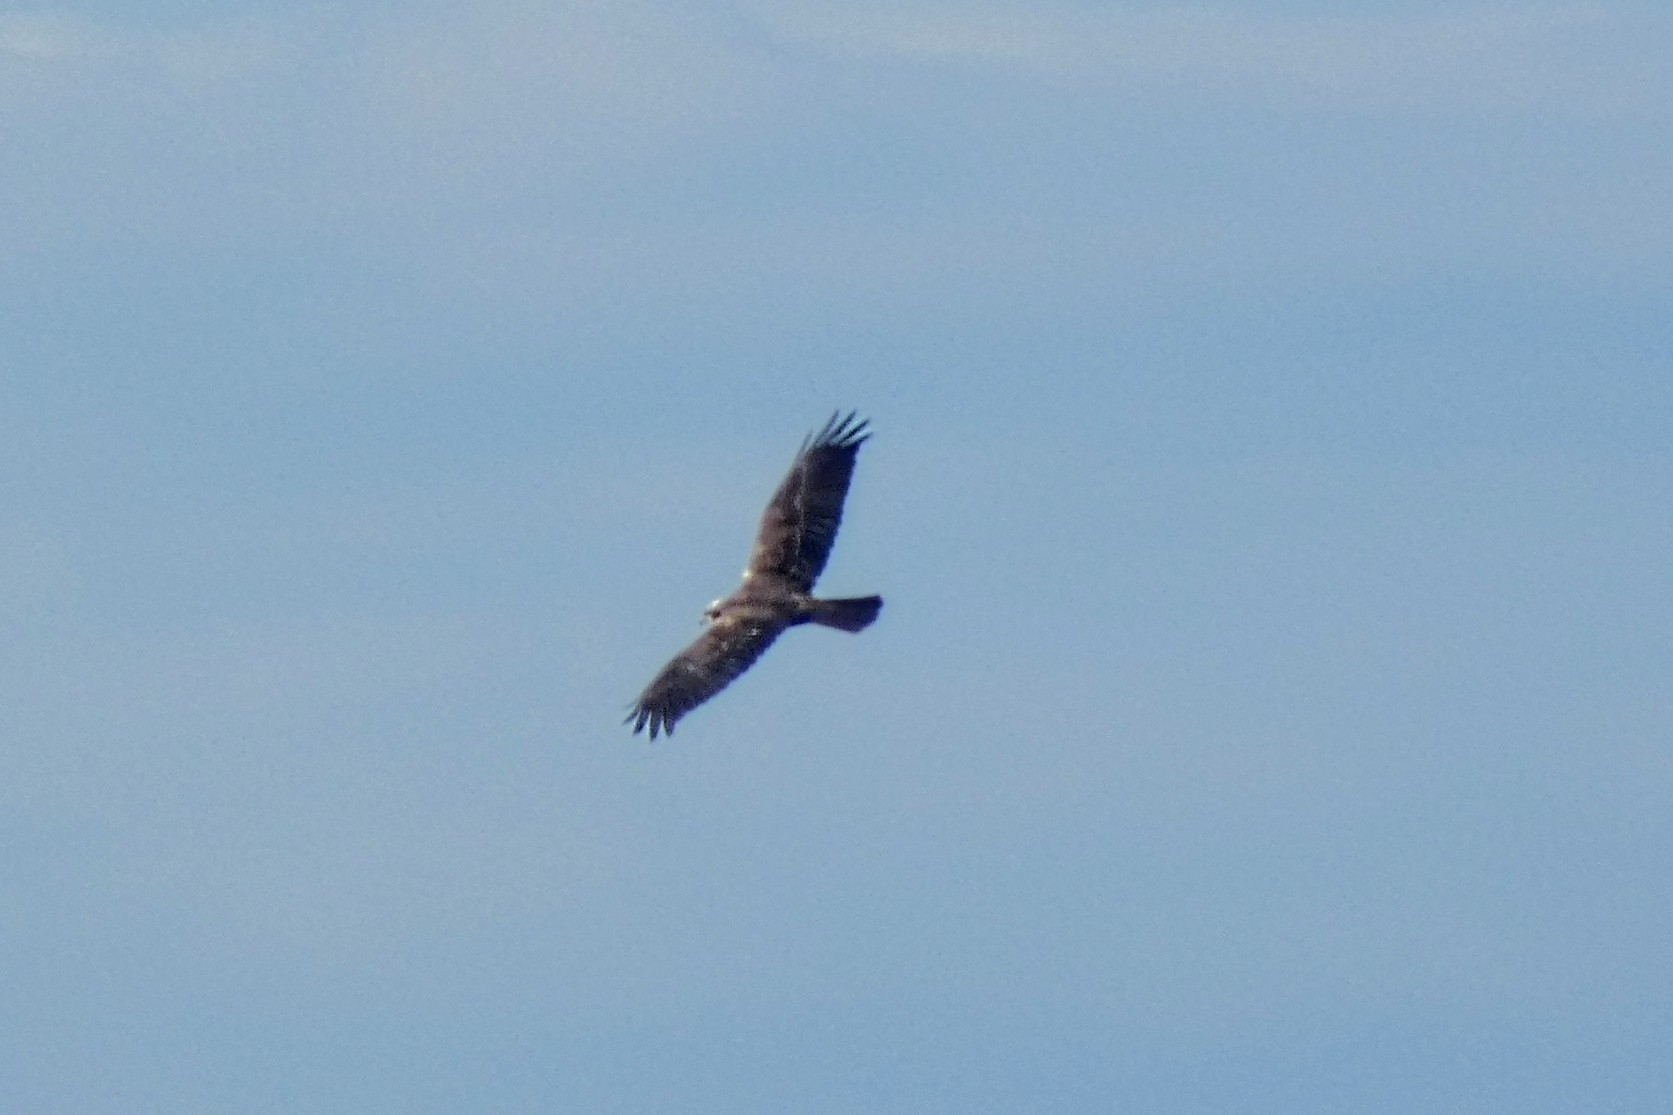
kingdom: Animalia
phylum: Chordata
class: Aves
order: Accipitriformes
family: Accipitridae
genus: Circus
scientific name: Circus aeruginosus
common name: Western marsh harrier
